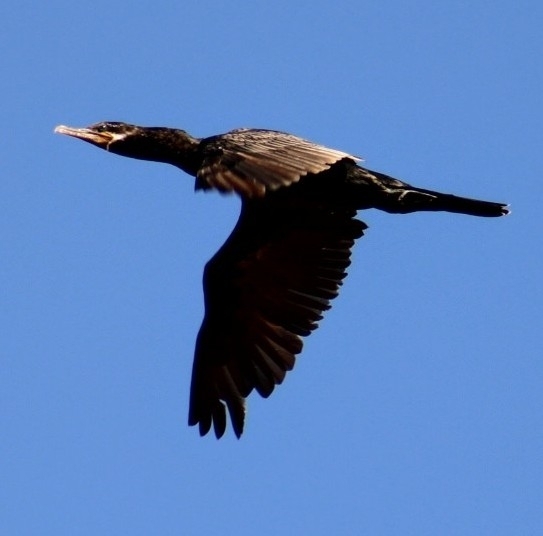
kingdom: Animalia
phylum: Chordata
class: Aves
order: Suliformes
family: Phalacrocoracidae
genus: Phalacrocorax
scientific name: Phalacrocorax brasilianus
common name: Neotropic cormorant
